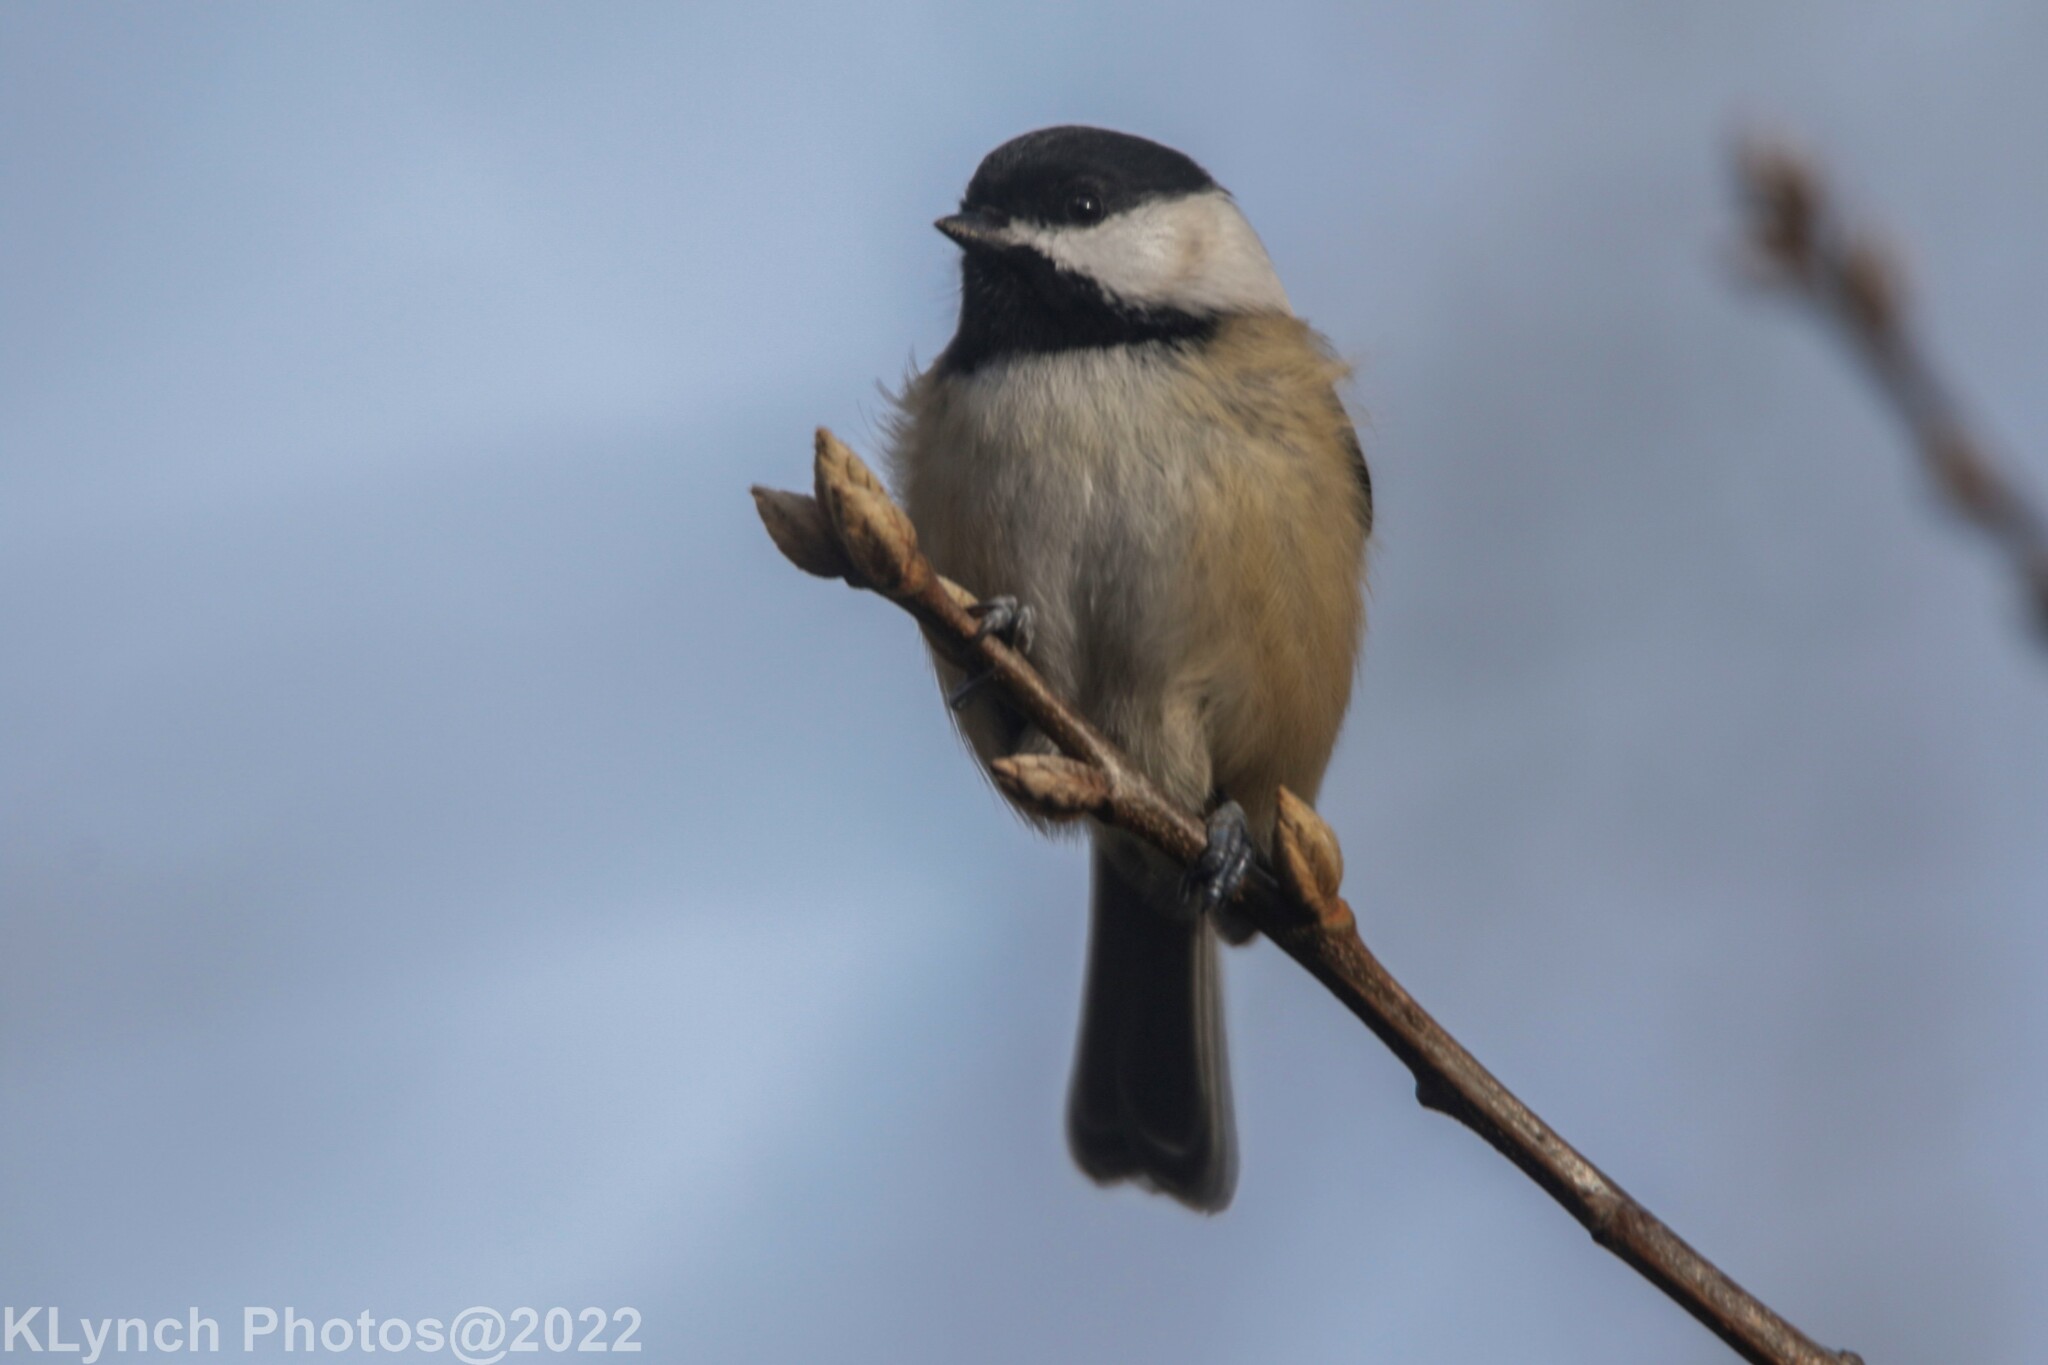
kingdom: Animalia
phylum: Chordata
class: Aves
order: Passeriformes
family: Paridae
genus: Poecile
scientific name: Poecile atricapillus
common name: Black-capped chickadee
